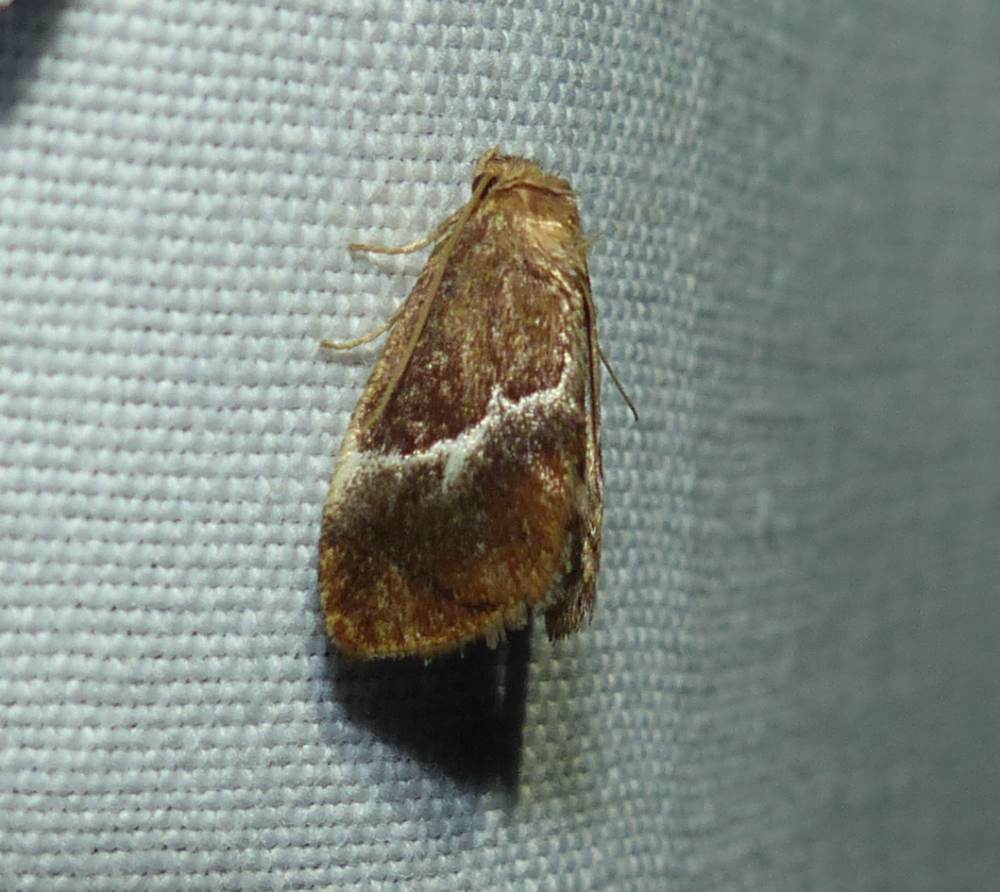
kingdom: Animalia
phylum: Arthropoda
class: Insecta
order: Lepidoptera
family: Limacodidae
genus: Lithacodes
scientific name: Lithacodes fasciola
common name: Yellow-shouldered slug moth
